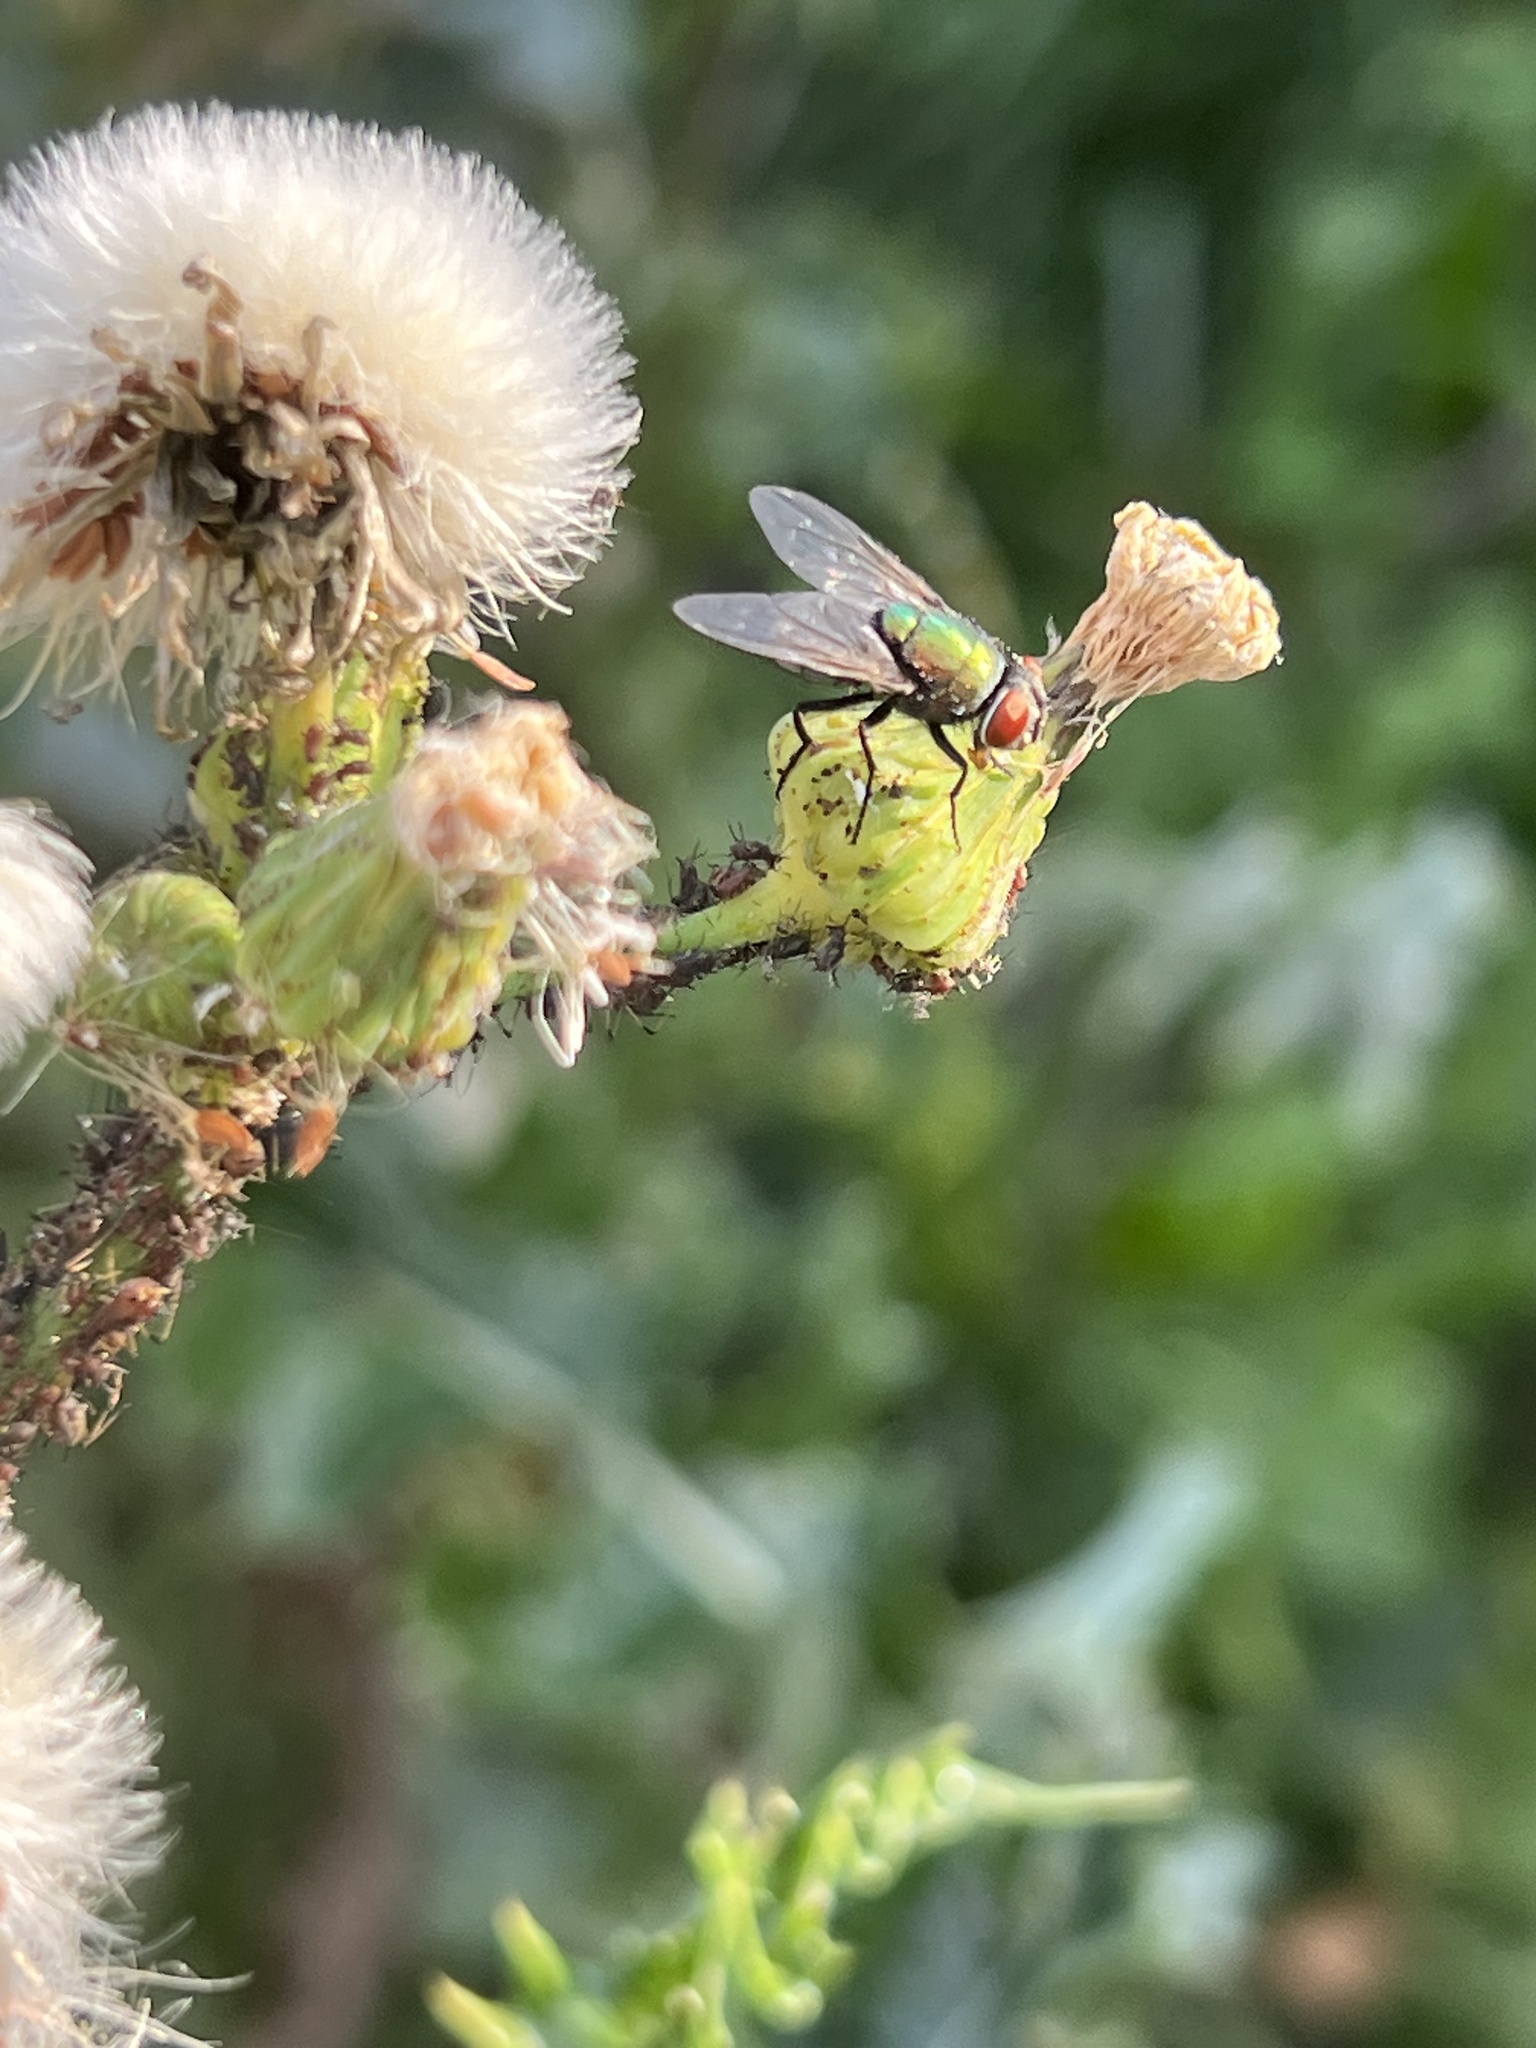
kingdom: Animalia
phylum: Arthropoda
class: Insecta
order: Diptera
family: Calliphoridae
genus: Lucilia
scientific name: Lucilia sericata
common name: Blow fly
